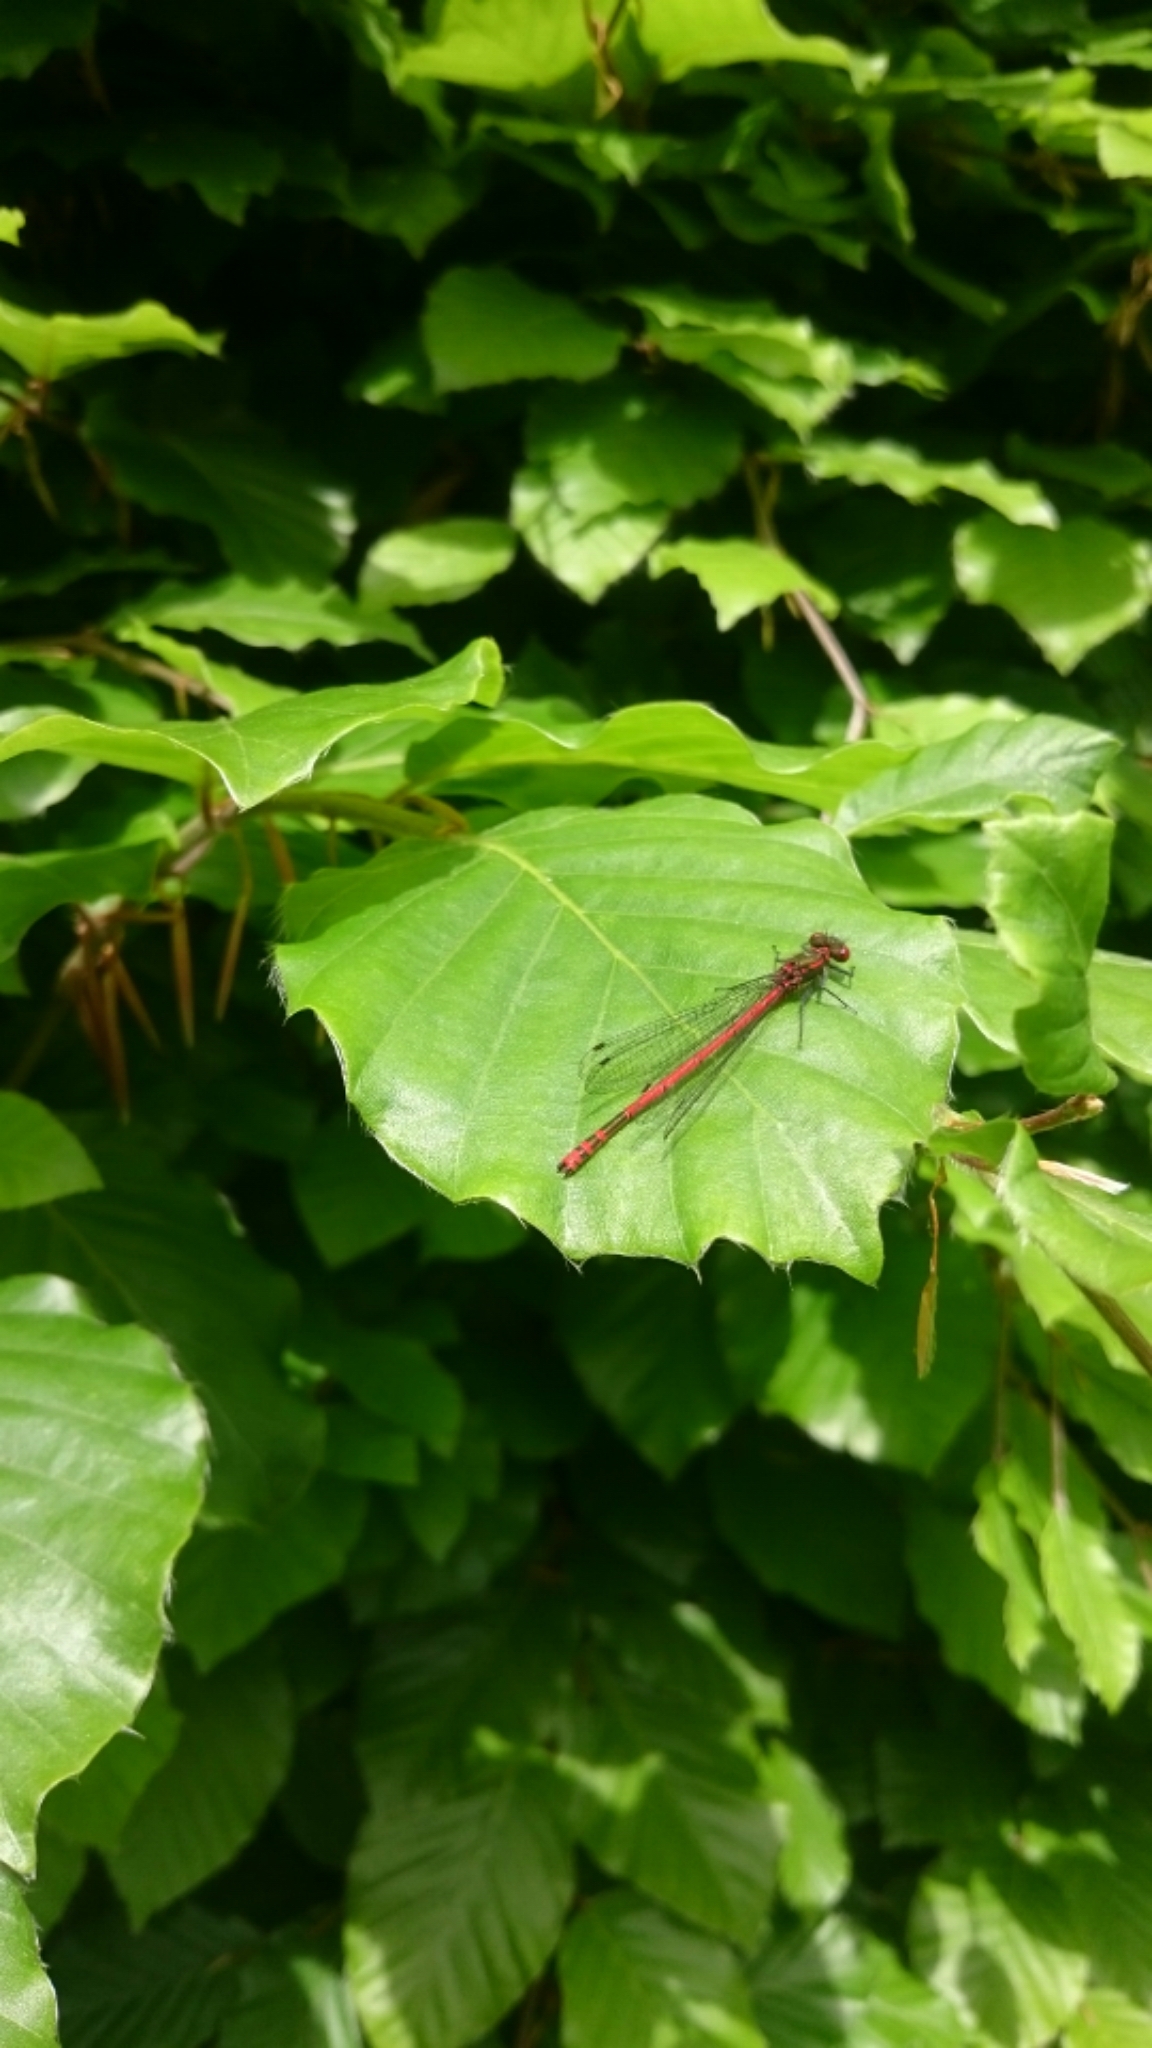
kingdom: Animalia
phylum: Arthropoda
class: Insecta
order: Odonata
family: Coenagrionidae
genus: Pyrrhosoma
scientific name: Pyrrhosoma nymphula
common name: Large red damsel
